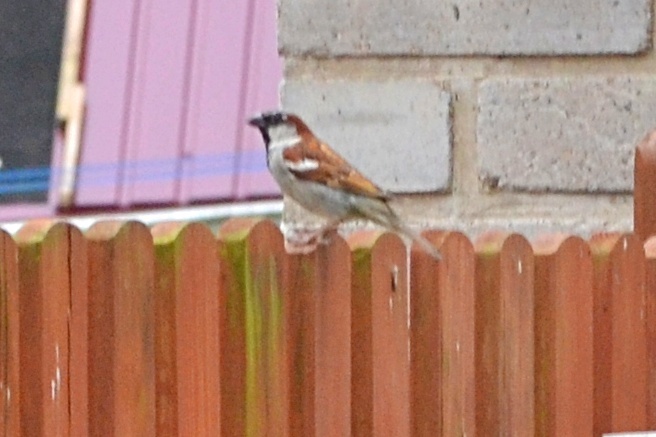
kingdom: Animalia
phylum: Chordata
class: Aves
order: Passeriformes
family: Passeridae
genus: Passer
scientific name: Passer domesticus
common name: House sparrow
